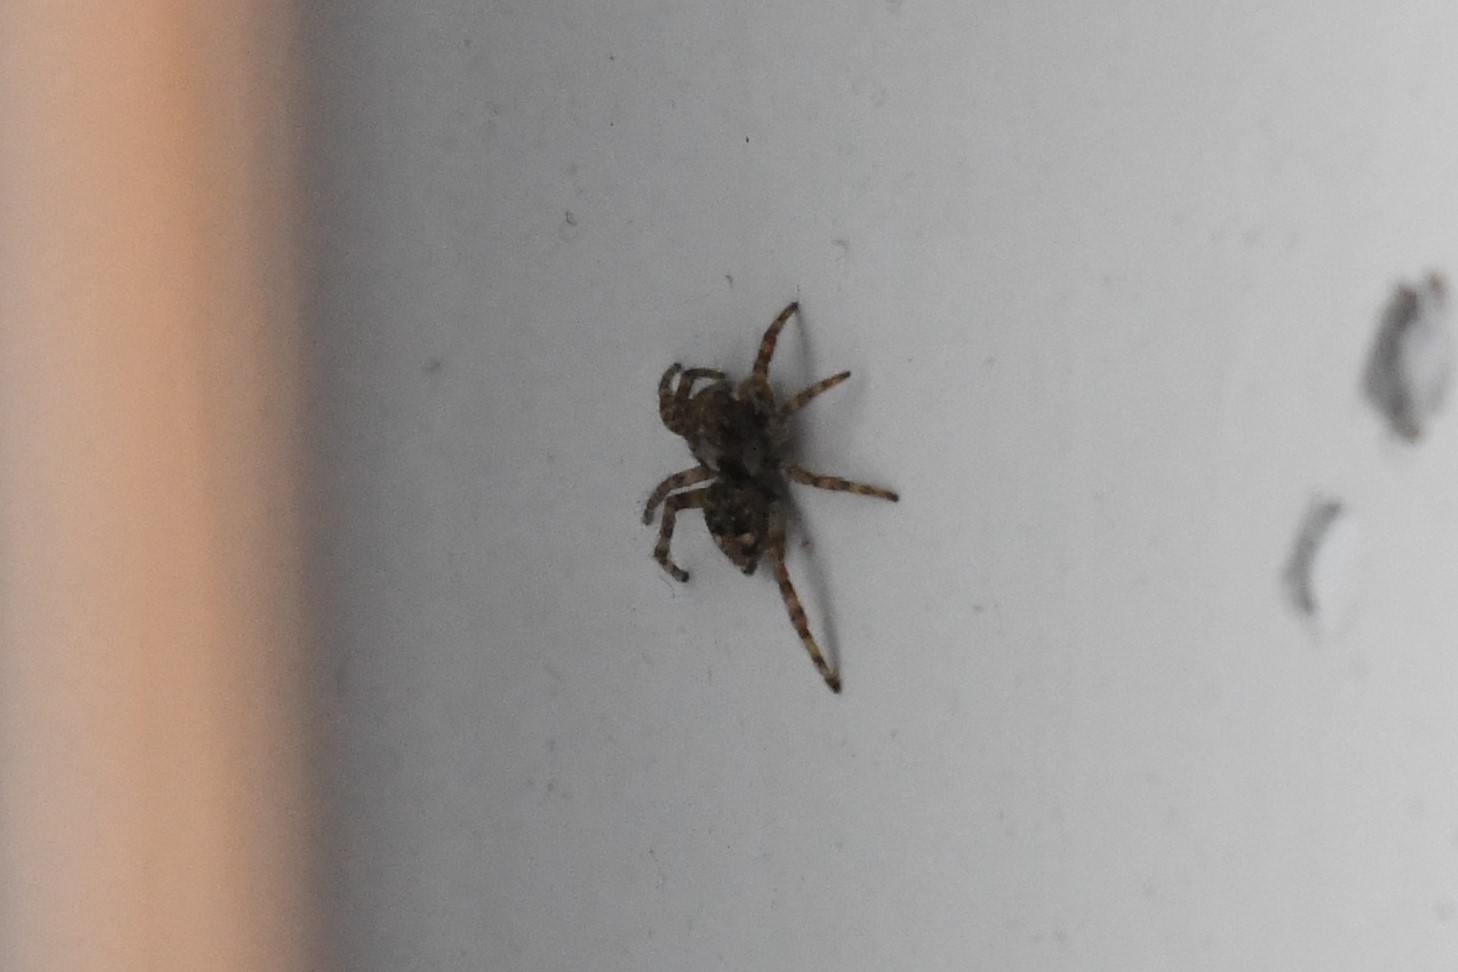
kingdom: Animalia
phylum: Arthropoda
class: Arachnida
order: Araneae
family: Salticidae
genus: Attulus
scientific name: Attulus fasciger
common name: Asiatic wall jumping spider
